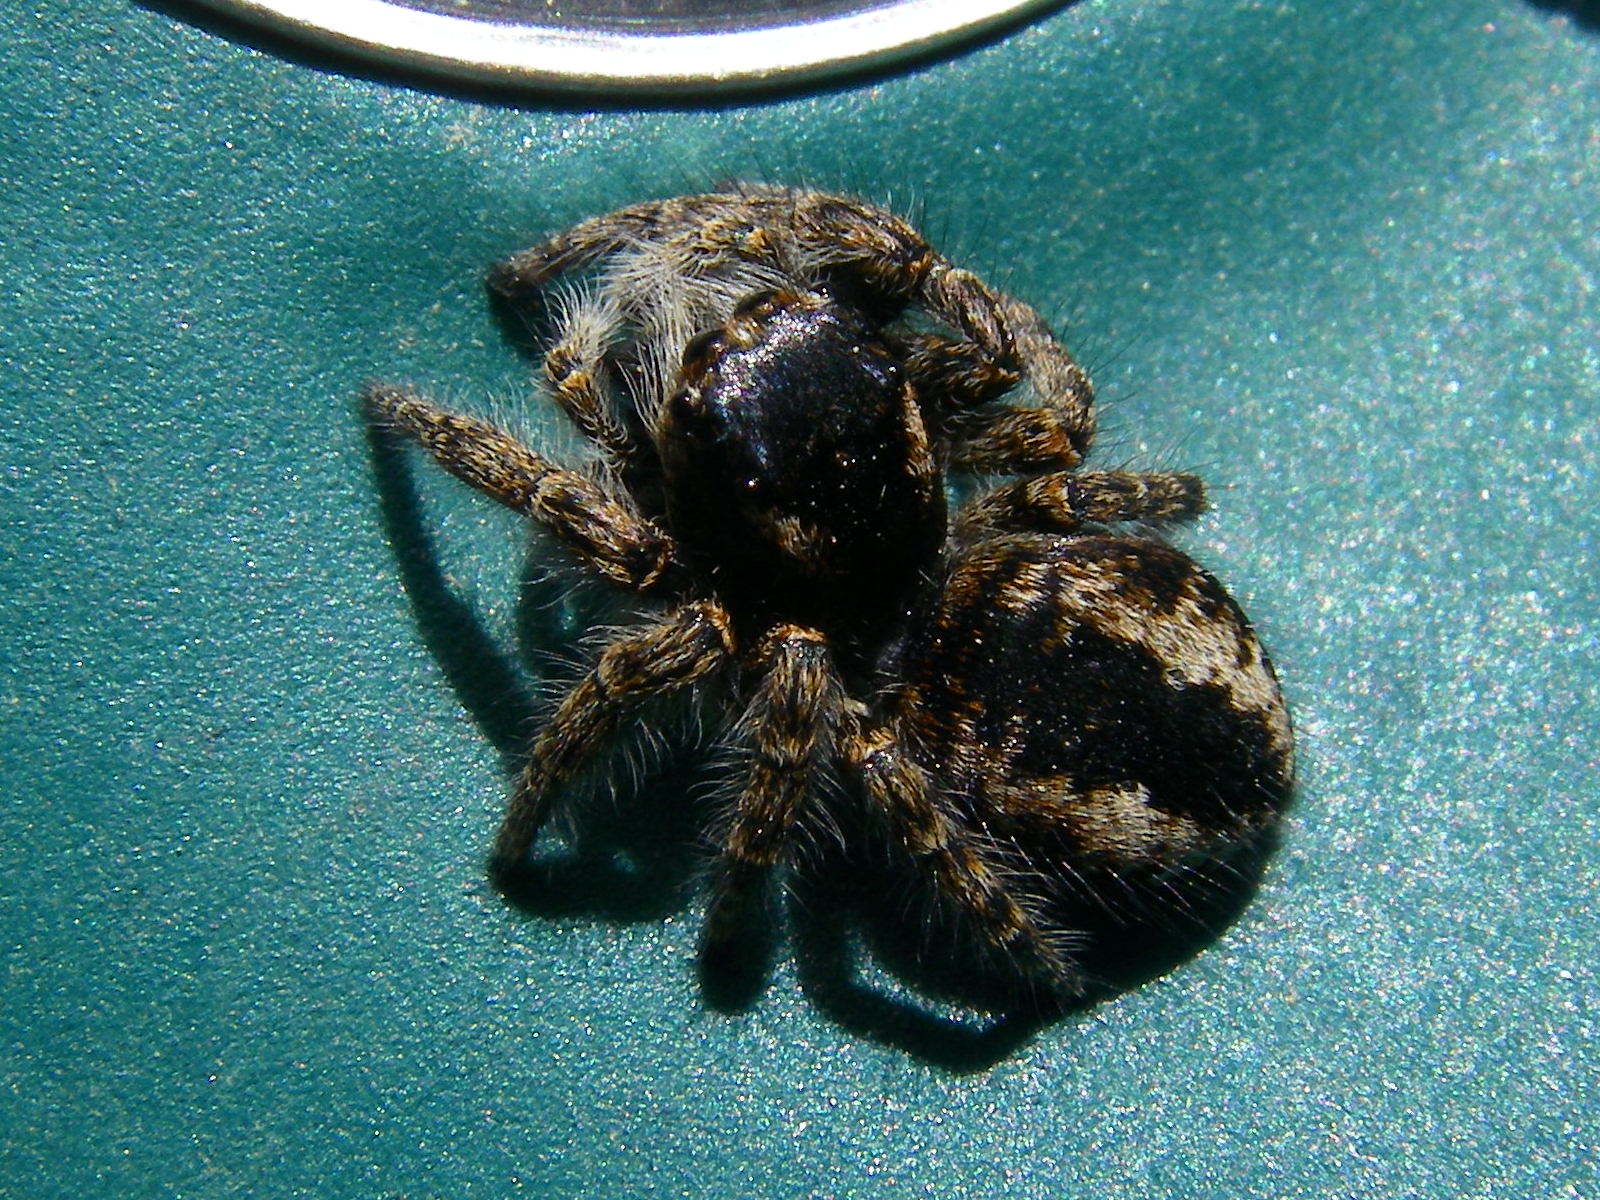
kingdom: Animalia
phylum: Arthropoda
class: Arachnida
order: Araneae
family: Salticidae
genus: Philaeus
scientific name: Philaeus chrysops
